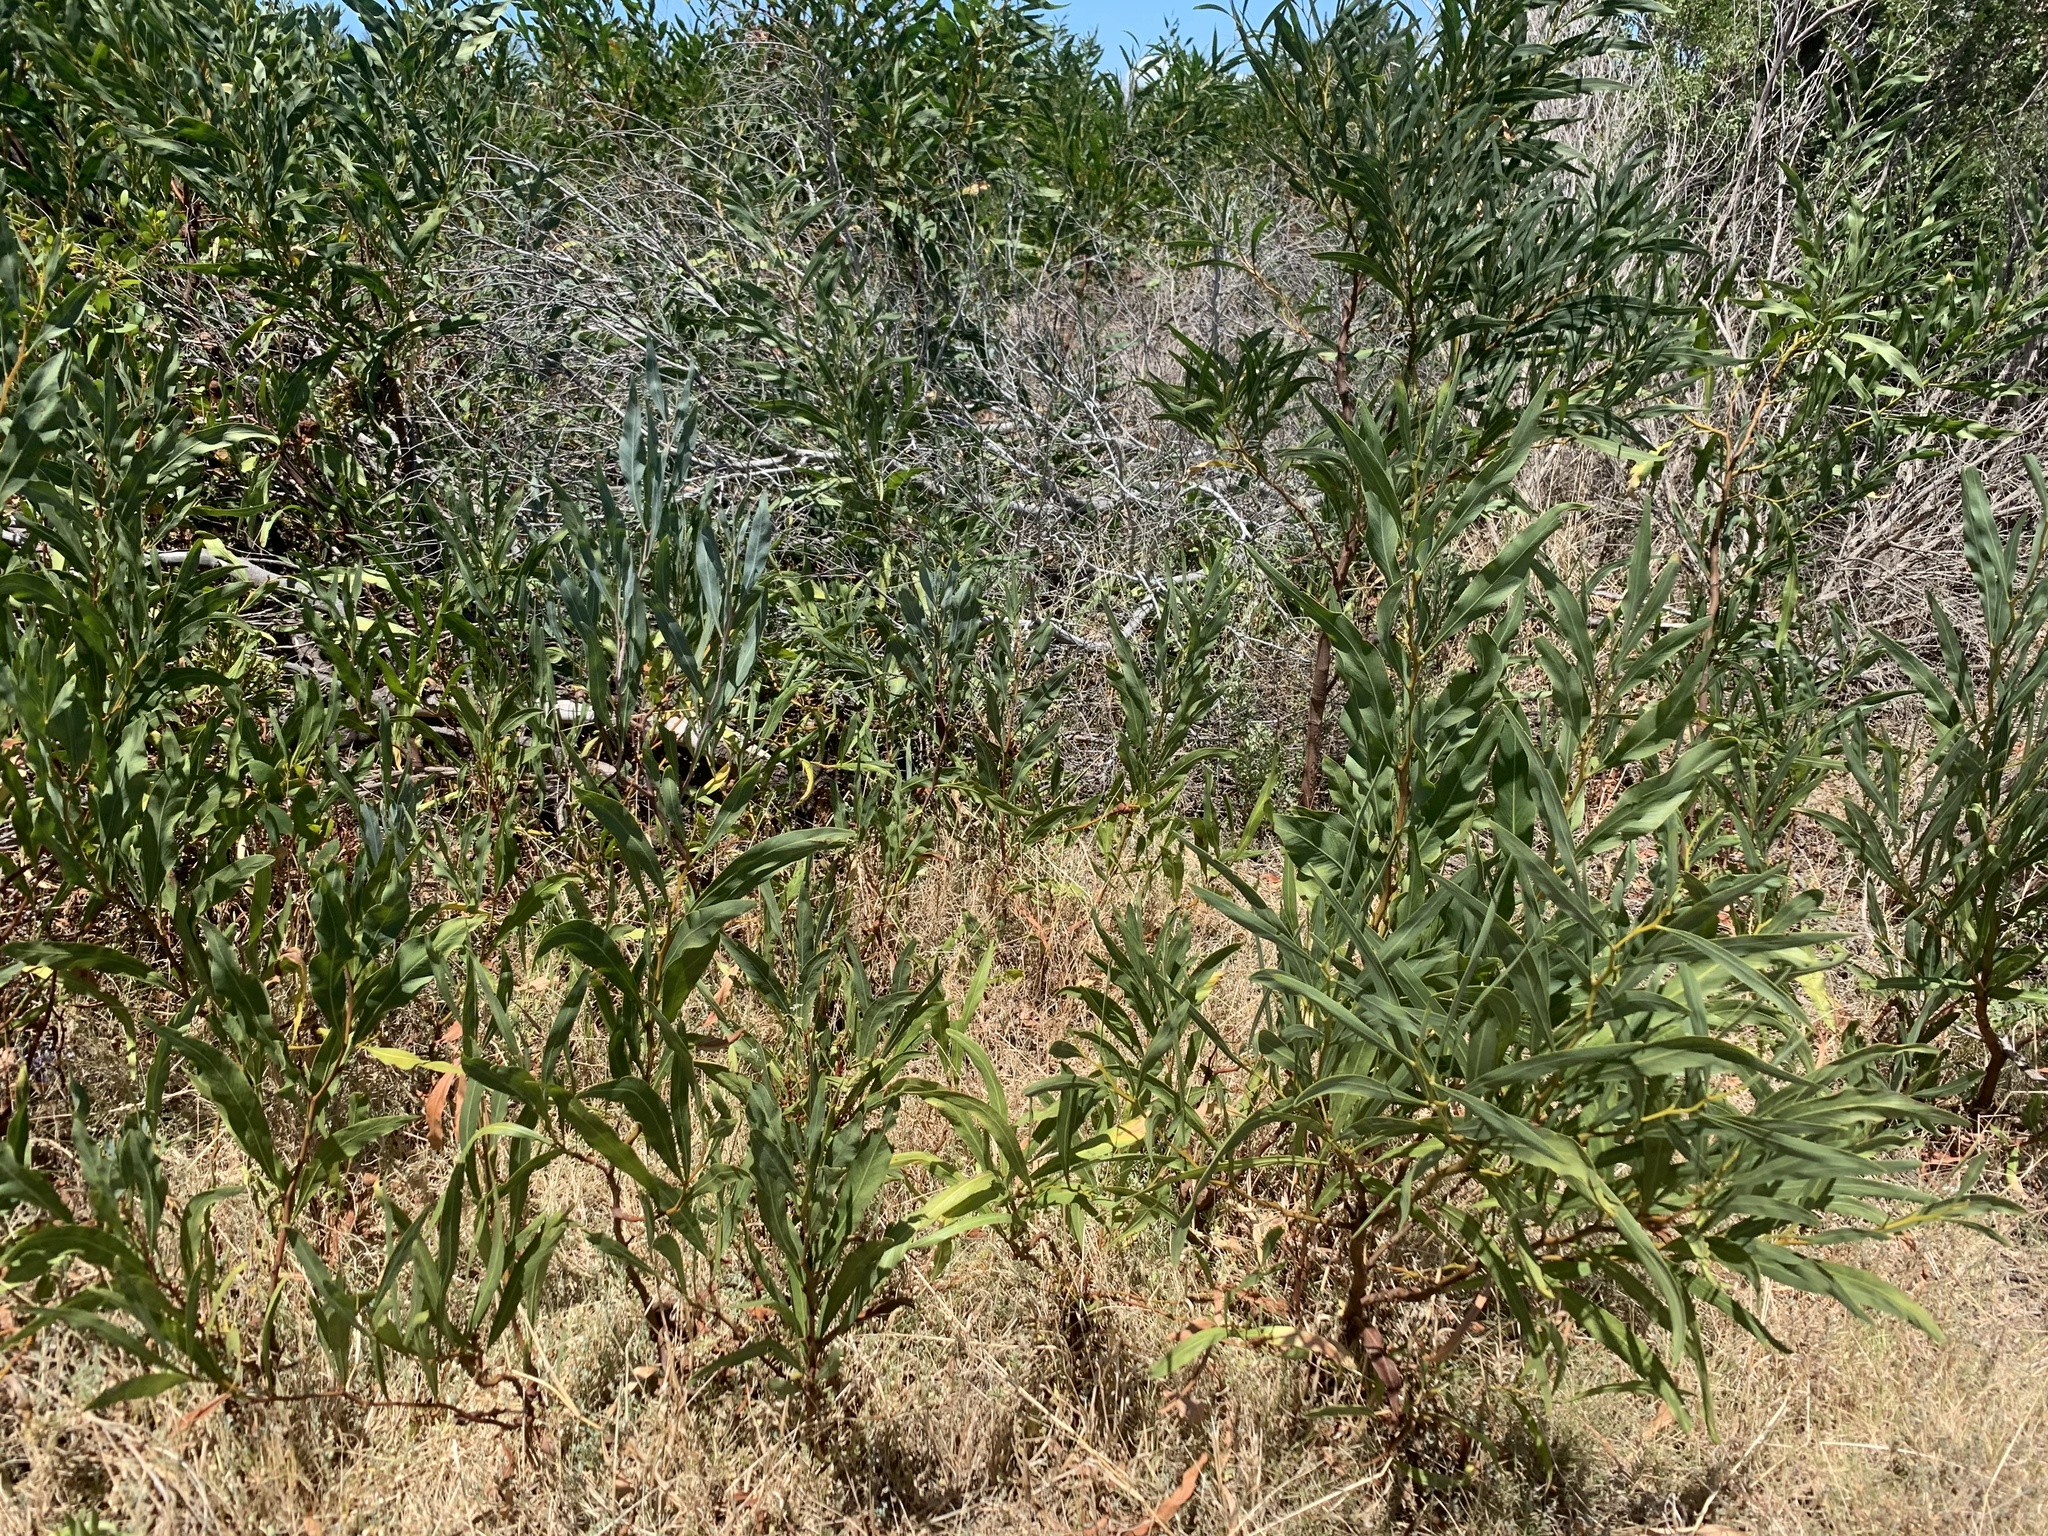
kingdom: Plantae
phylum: Tracheophyta
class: Magnoliopsida
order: Fabales
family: Fabaceae
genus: Acacia
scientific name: Acacia saligna
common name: Orange wattle
